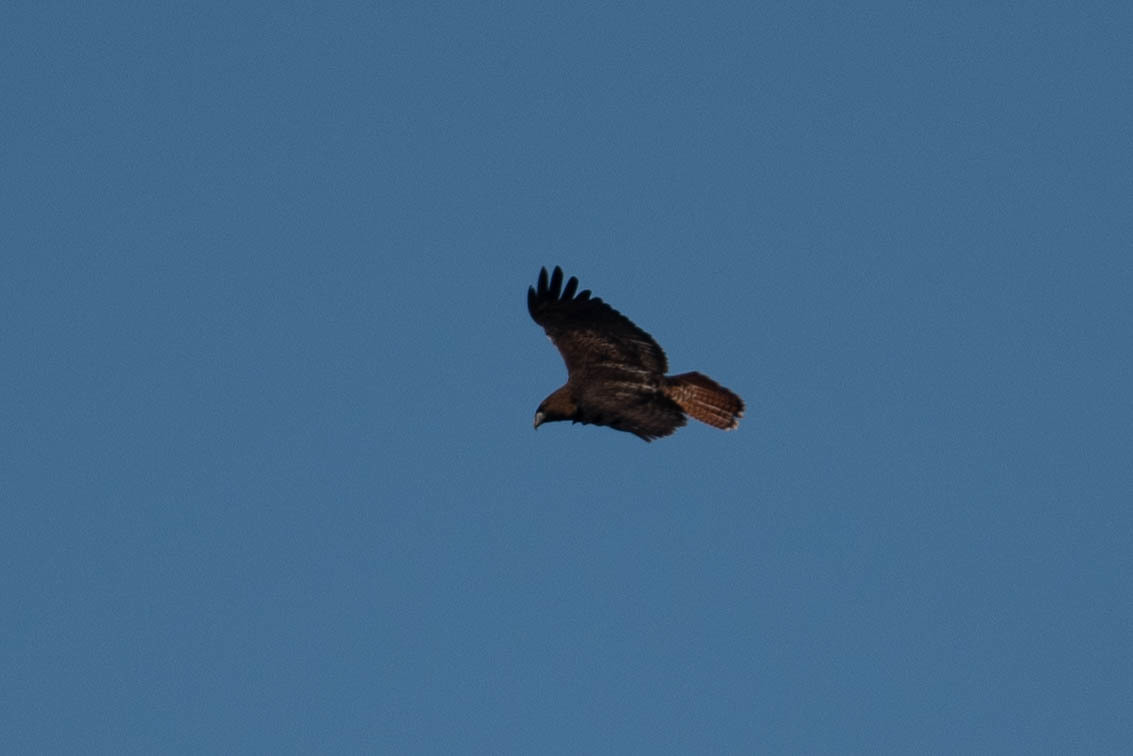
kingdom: Animalia
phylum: Chordata
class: Aves
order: Accipitriformes
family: Accipitridae
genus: Buteo
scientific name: Buteo jamaicensis
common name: Red-tailed hawk
